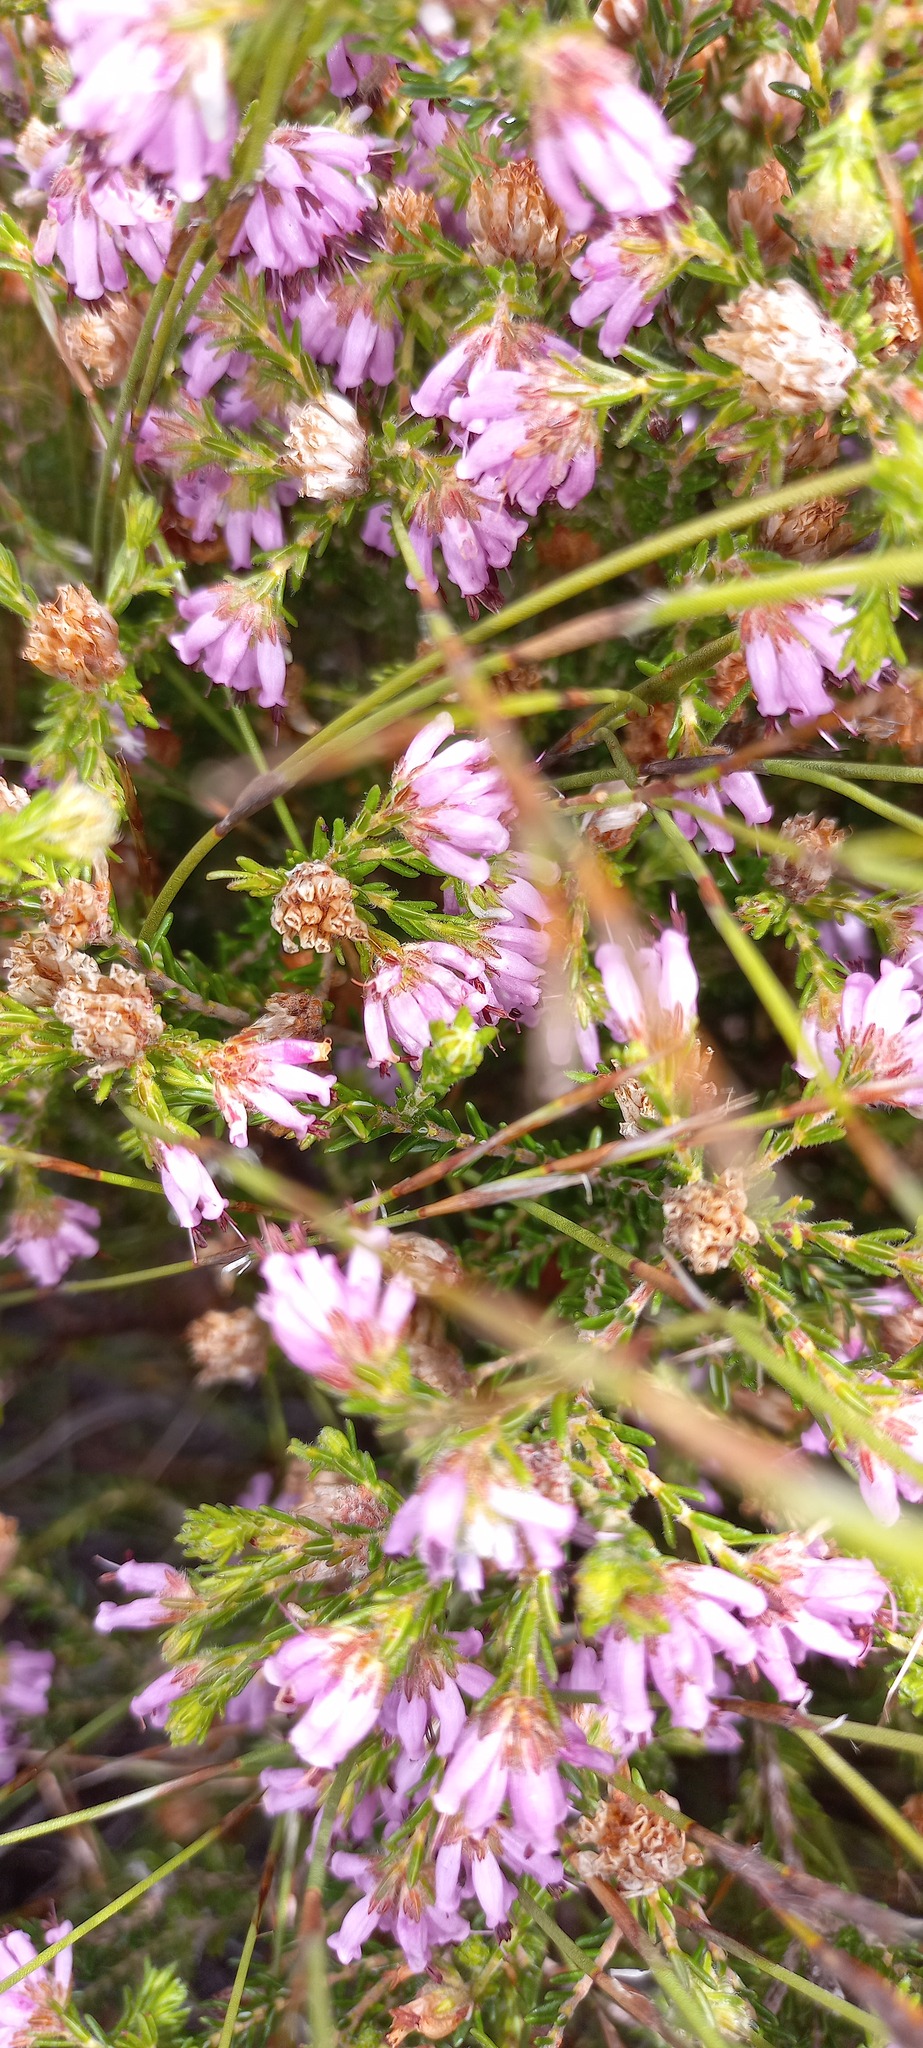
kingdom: Plantae
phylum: Tracheophyta
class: Magnoliopsida
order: Ericales
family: Ericaceae
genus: Erica
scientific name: Erica labialis
